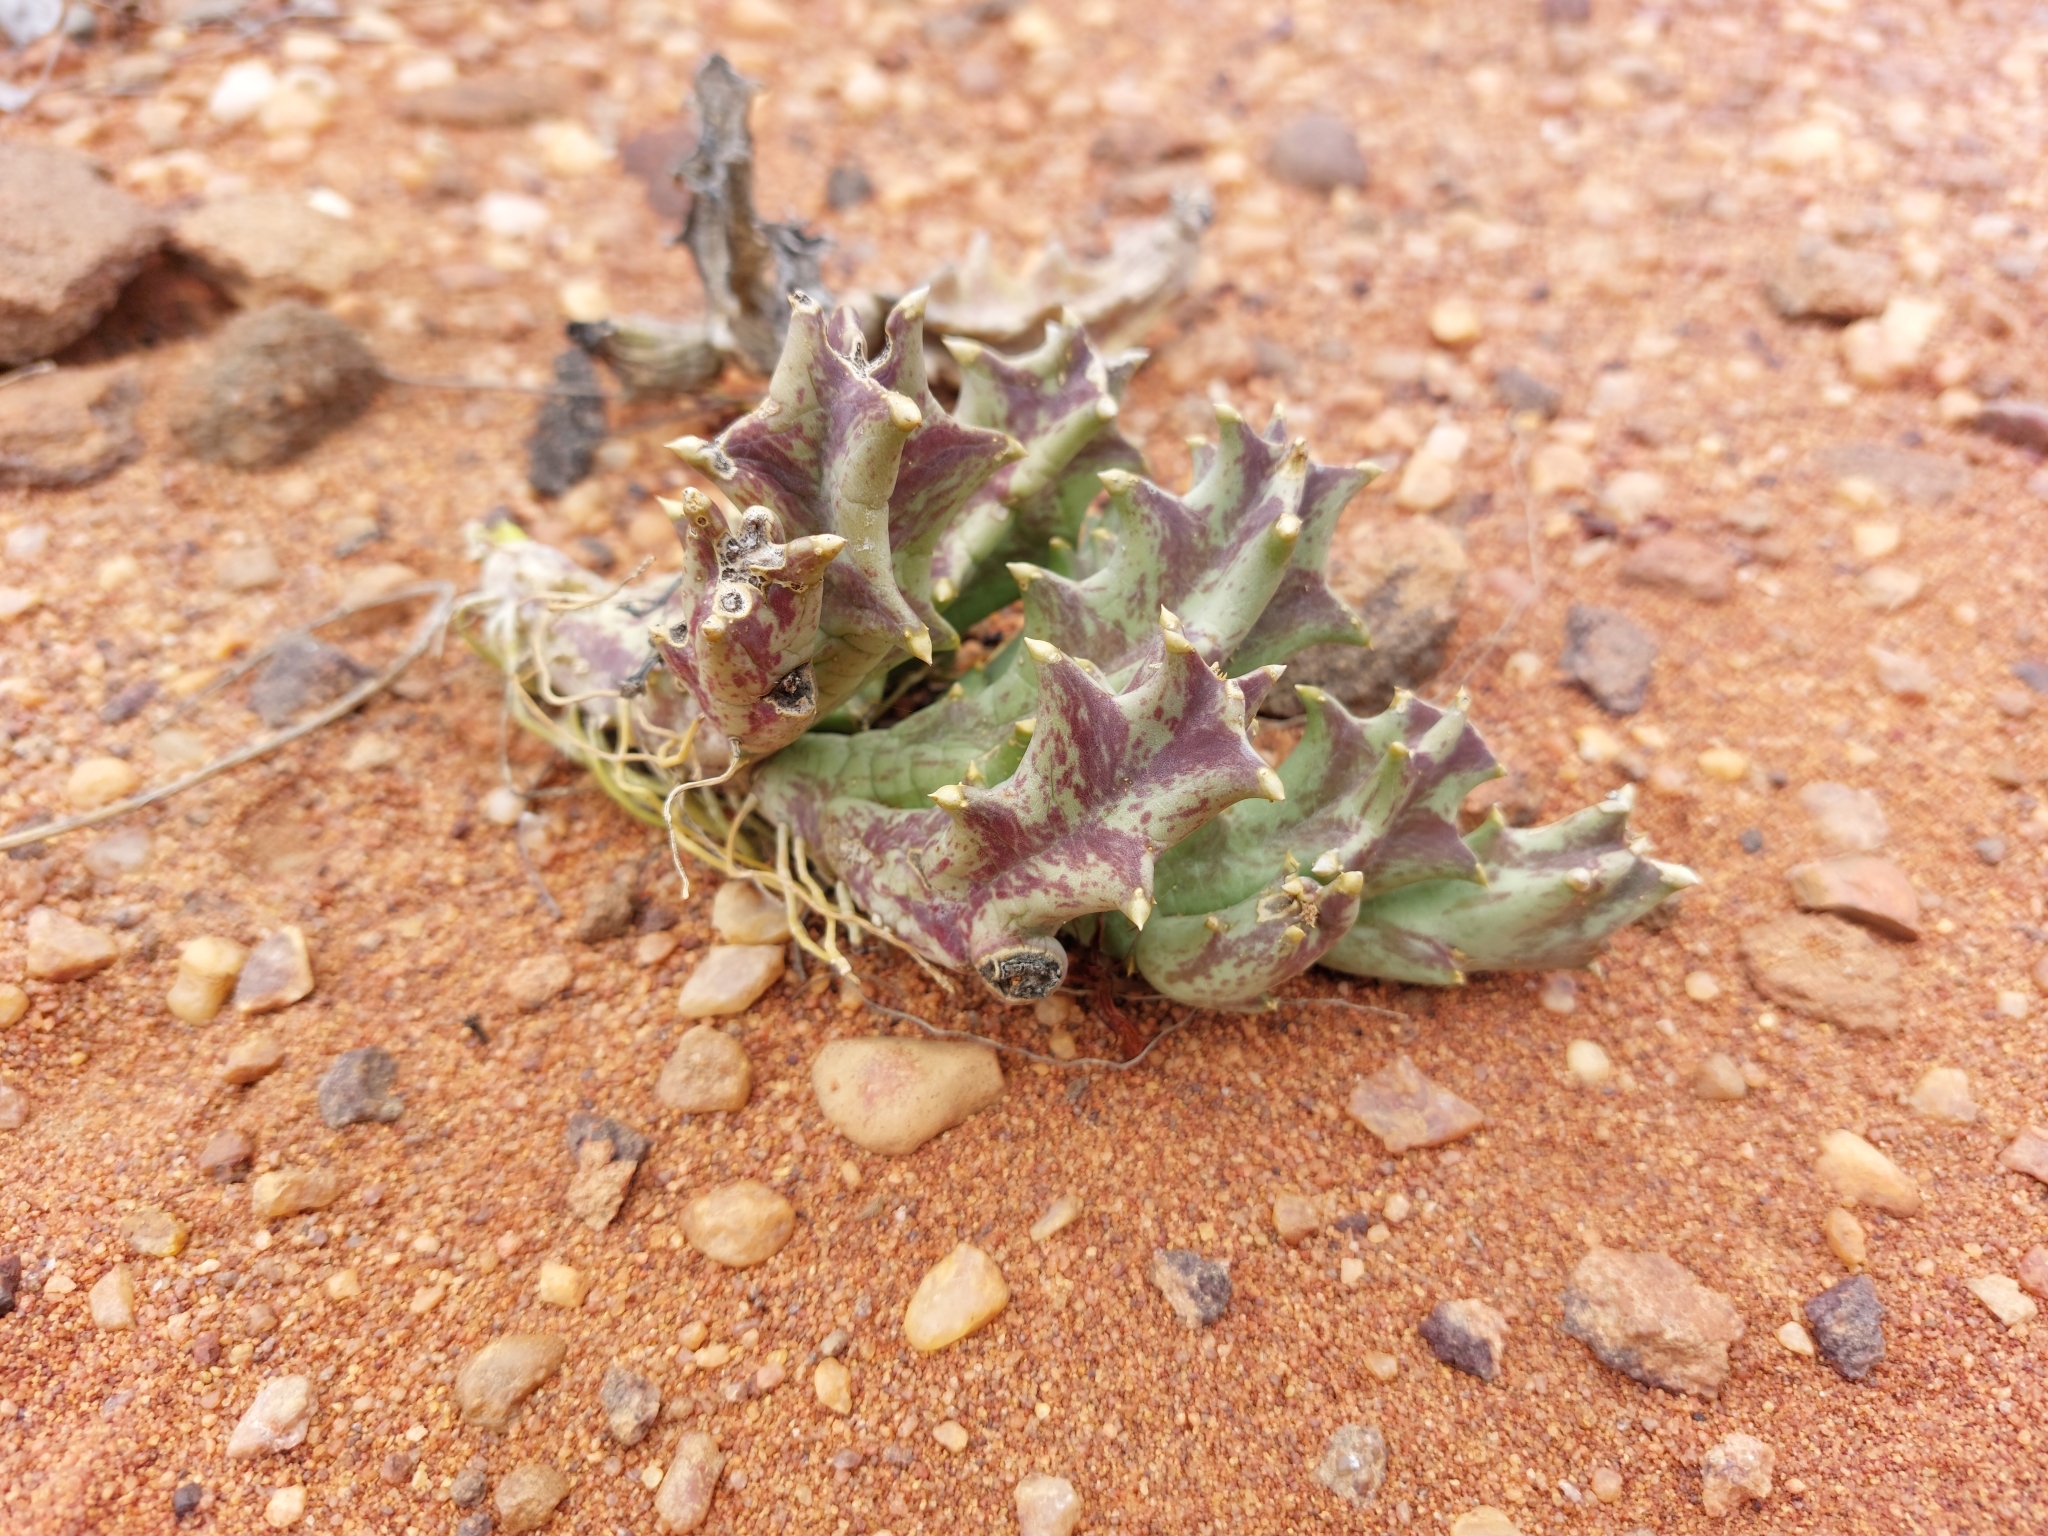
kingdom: Plantae
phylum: Tracheophyta
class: Magnoliopsida
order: Gentianales
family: Apocynaceae
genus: Ceropegia
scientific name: Ceropegia melanantha
